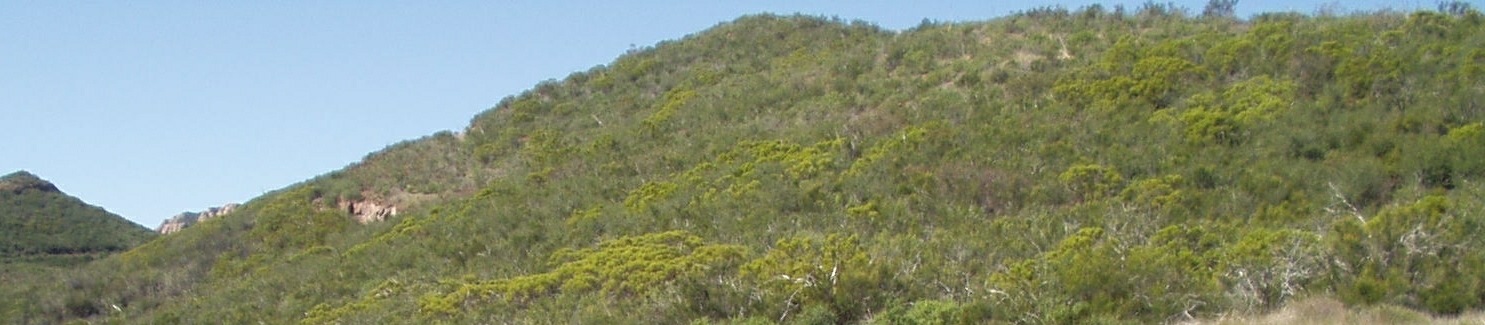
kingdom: Plantae
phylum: Tracheophyta
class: Magnoliopsida
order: Rosales
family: Rosaceae
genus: Adenostoma
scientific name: Adenostoma fasciculatum
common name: Chamise
